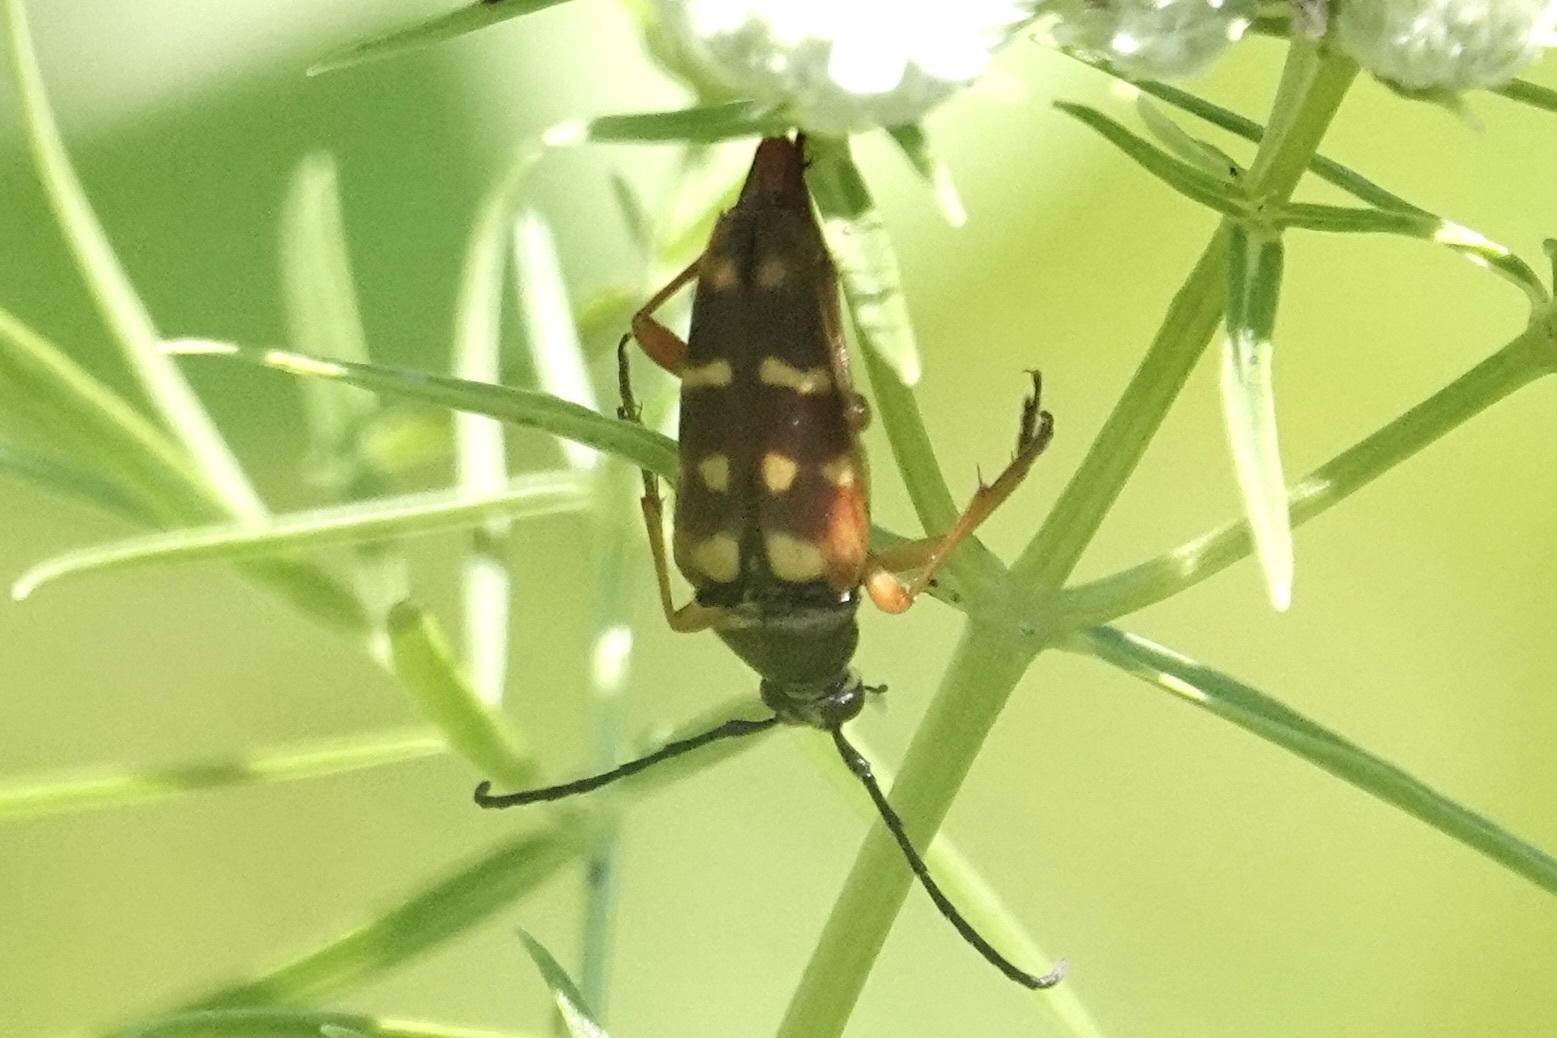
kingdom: Animalia
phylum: Arthropoda
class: Insecta
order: Coleoptera
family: Cerambycidae
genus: Typocerus
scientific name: Typocerus velutinus
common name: Banded longhorn beetle
